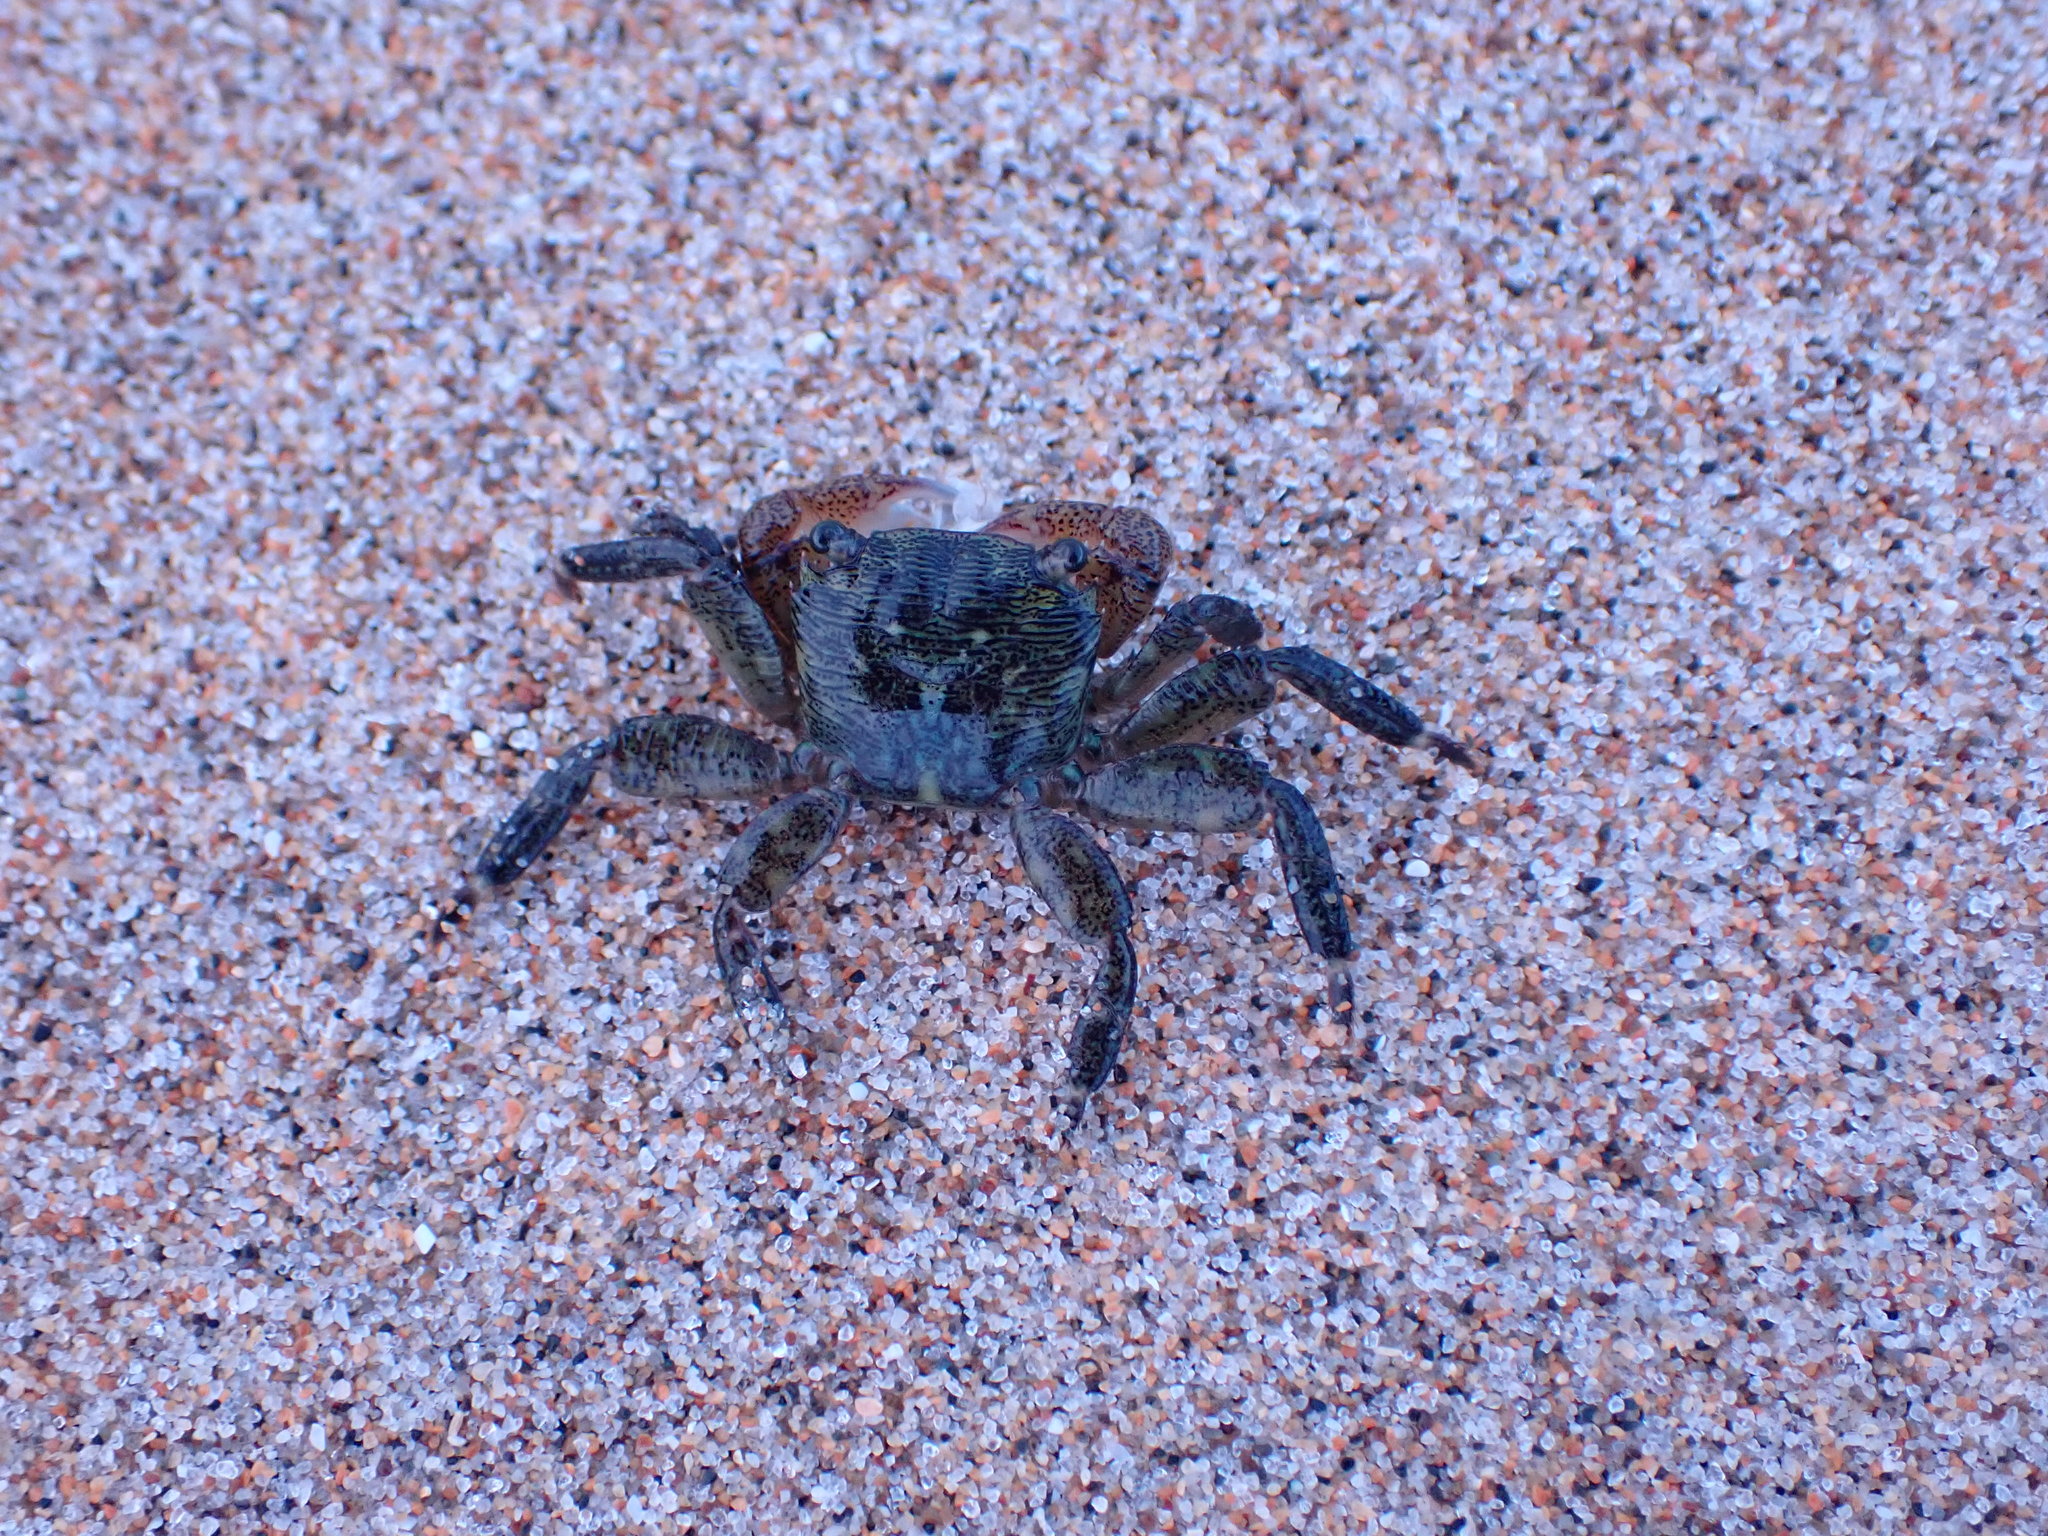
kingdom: Animalia
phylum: Arthropoda
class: Malacostraca
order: Decapoda
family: Grapsidae
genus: Pachygrapsus
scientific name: Pachygrapsus crassipes
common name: Striped shore crab
